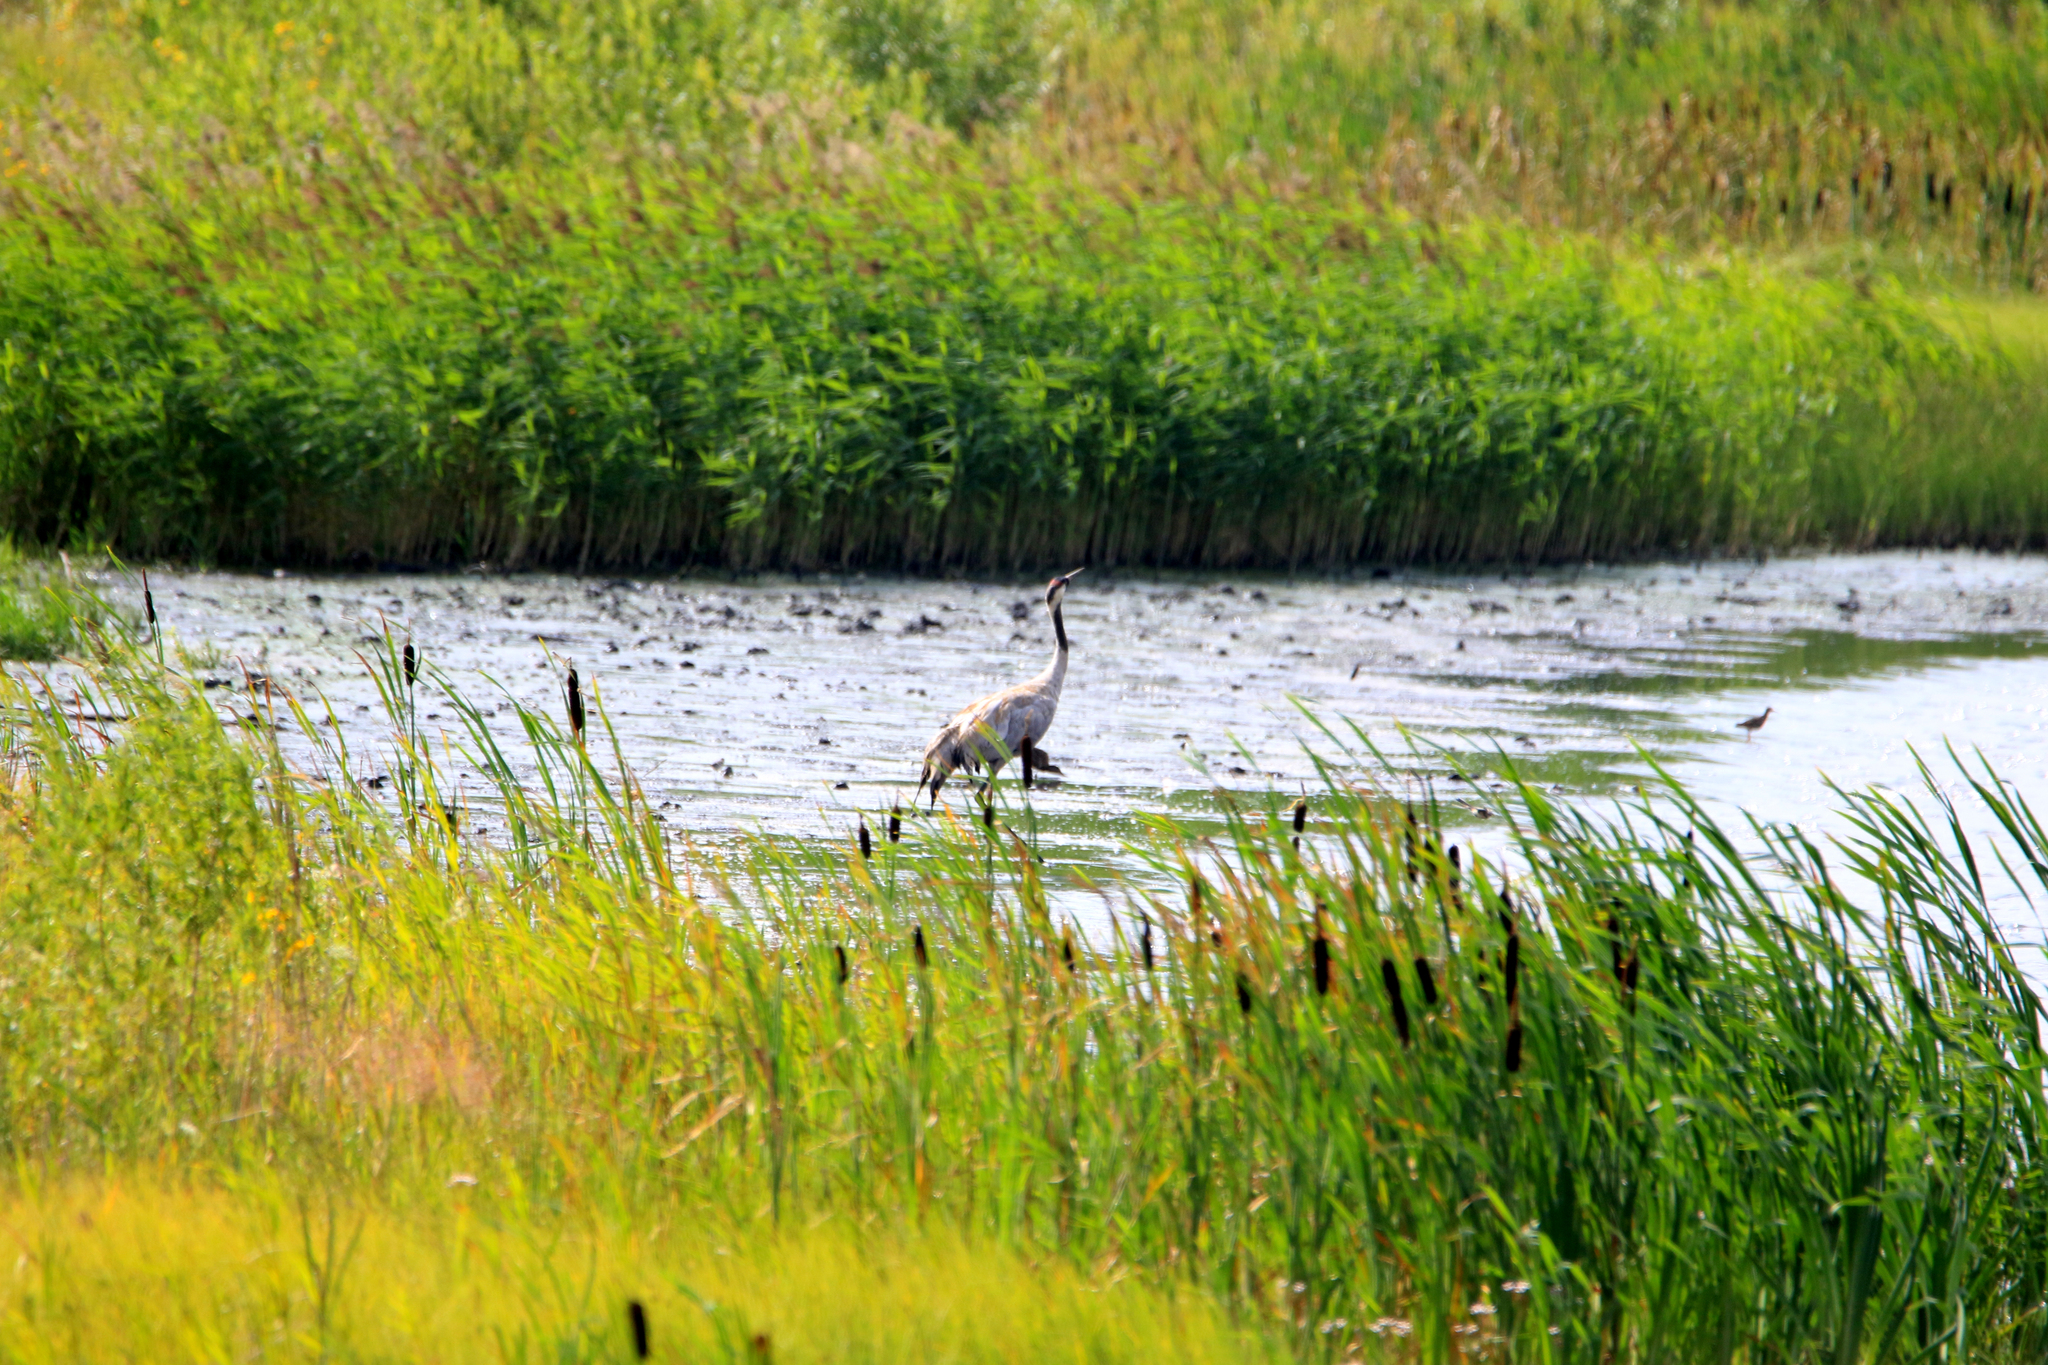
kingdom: Animalia
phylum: Chordata
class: Aves
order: Gruiformes
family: Gruidae
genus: Grus
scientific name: Grus grus
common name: Common crane
